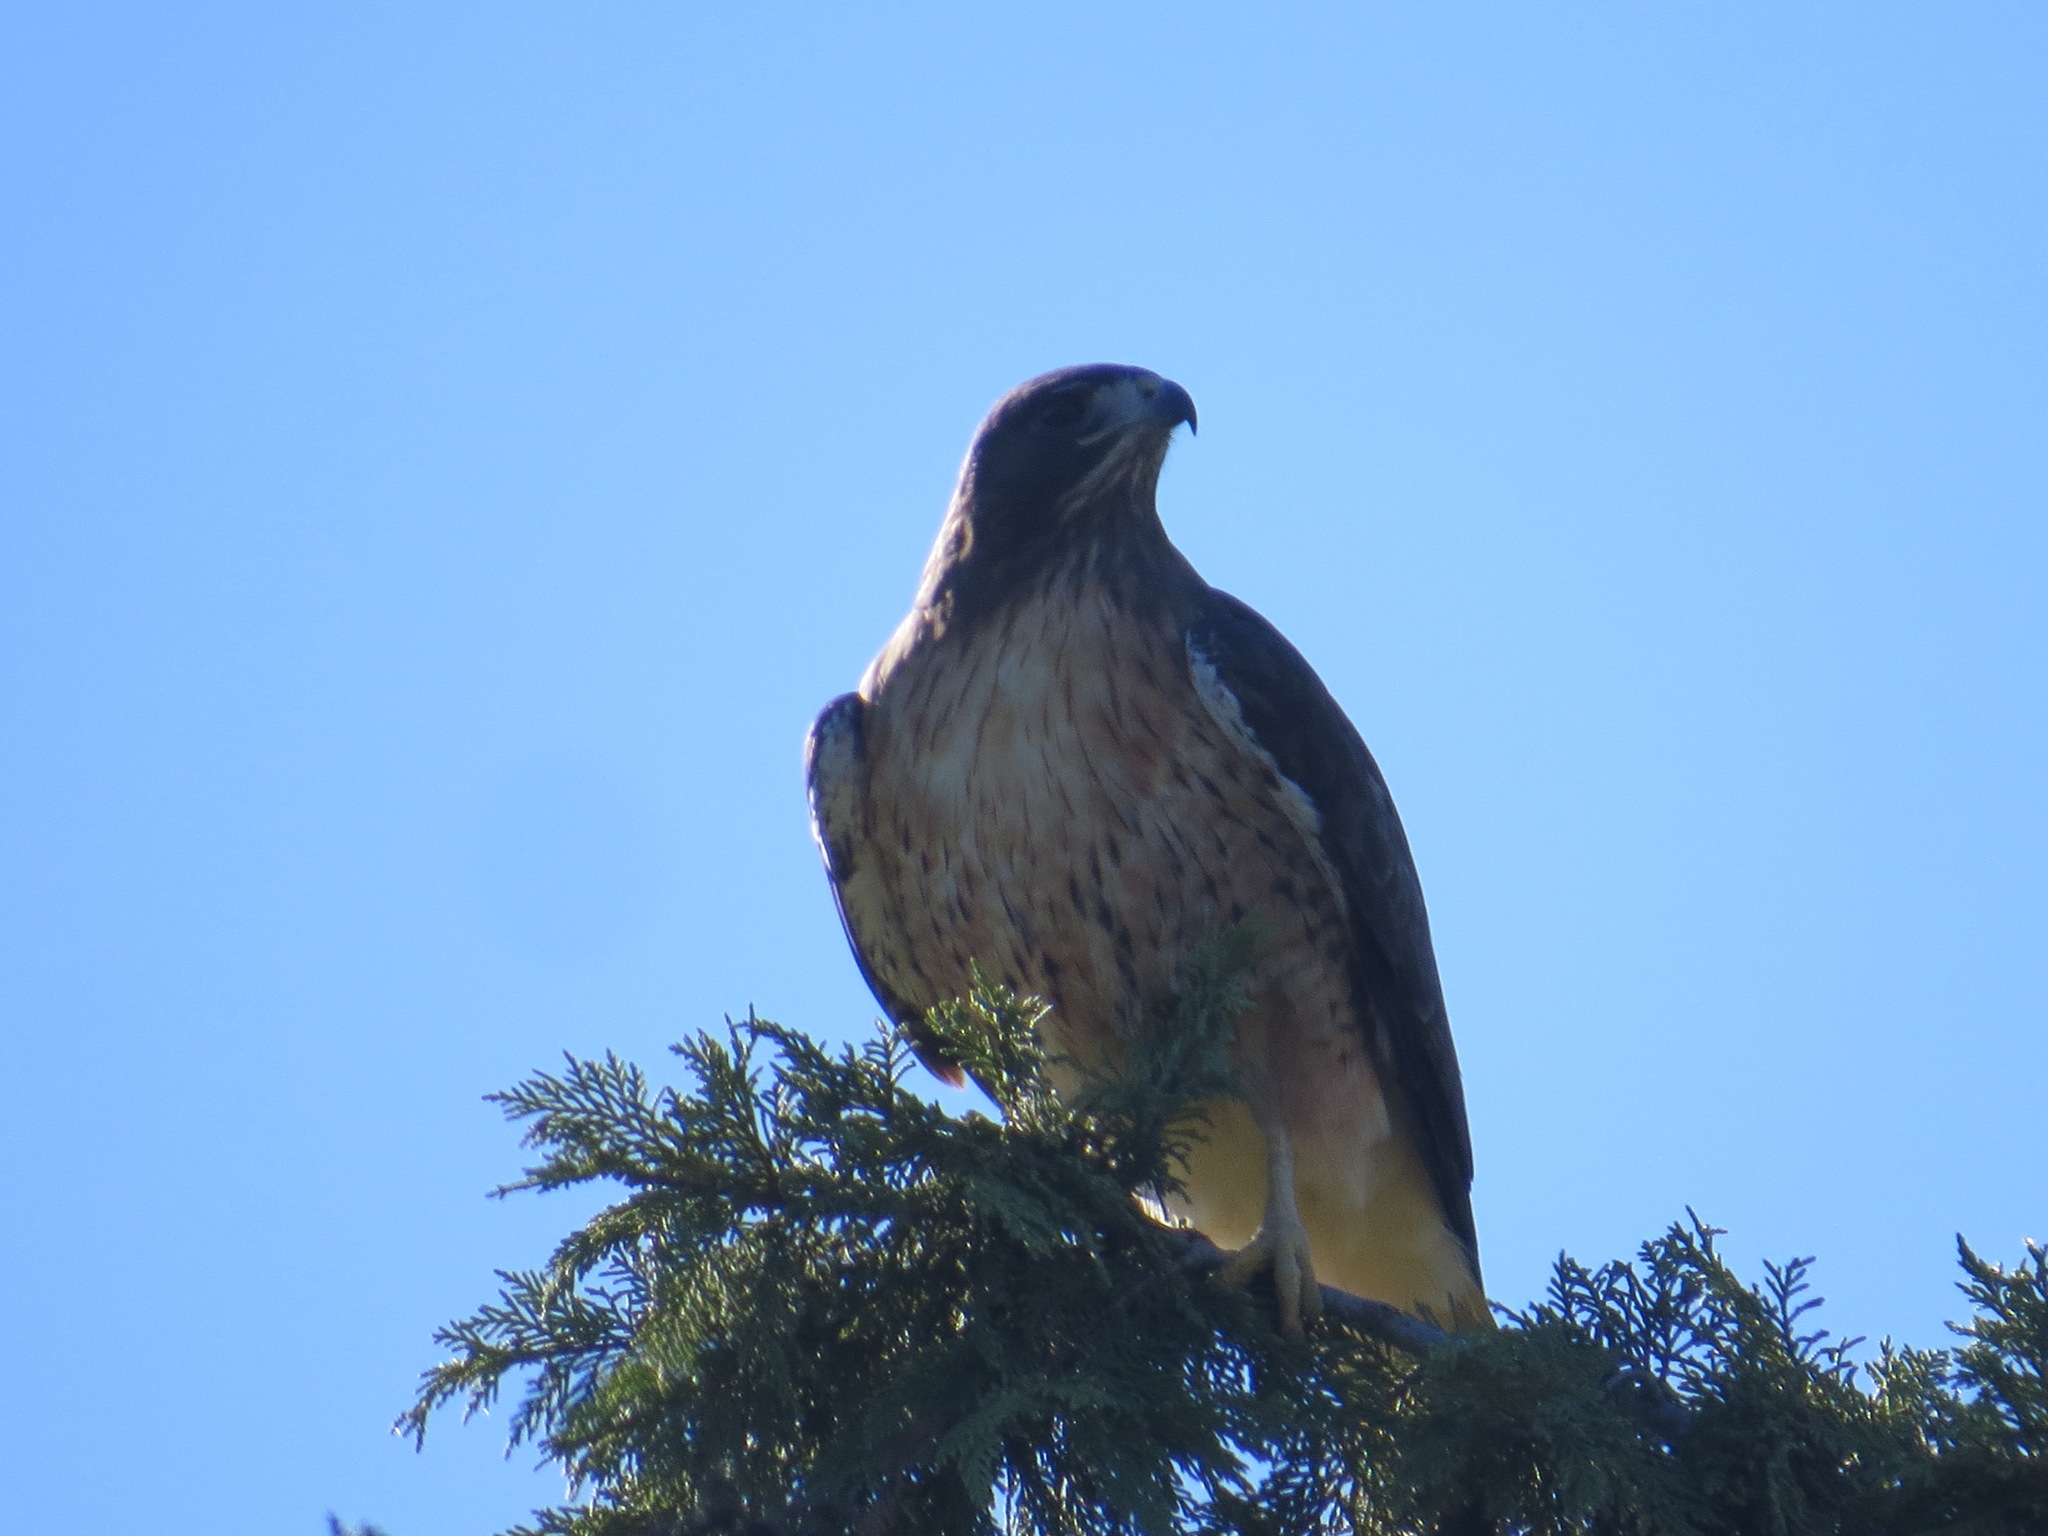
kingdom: Animalia
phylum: Chordata
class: Aves
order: Accipitriformes
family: Accipitridae
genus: Buteo
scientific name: Buteo jamaicensis
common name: Red-tailed hawk
